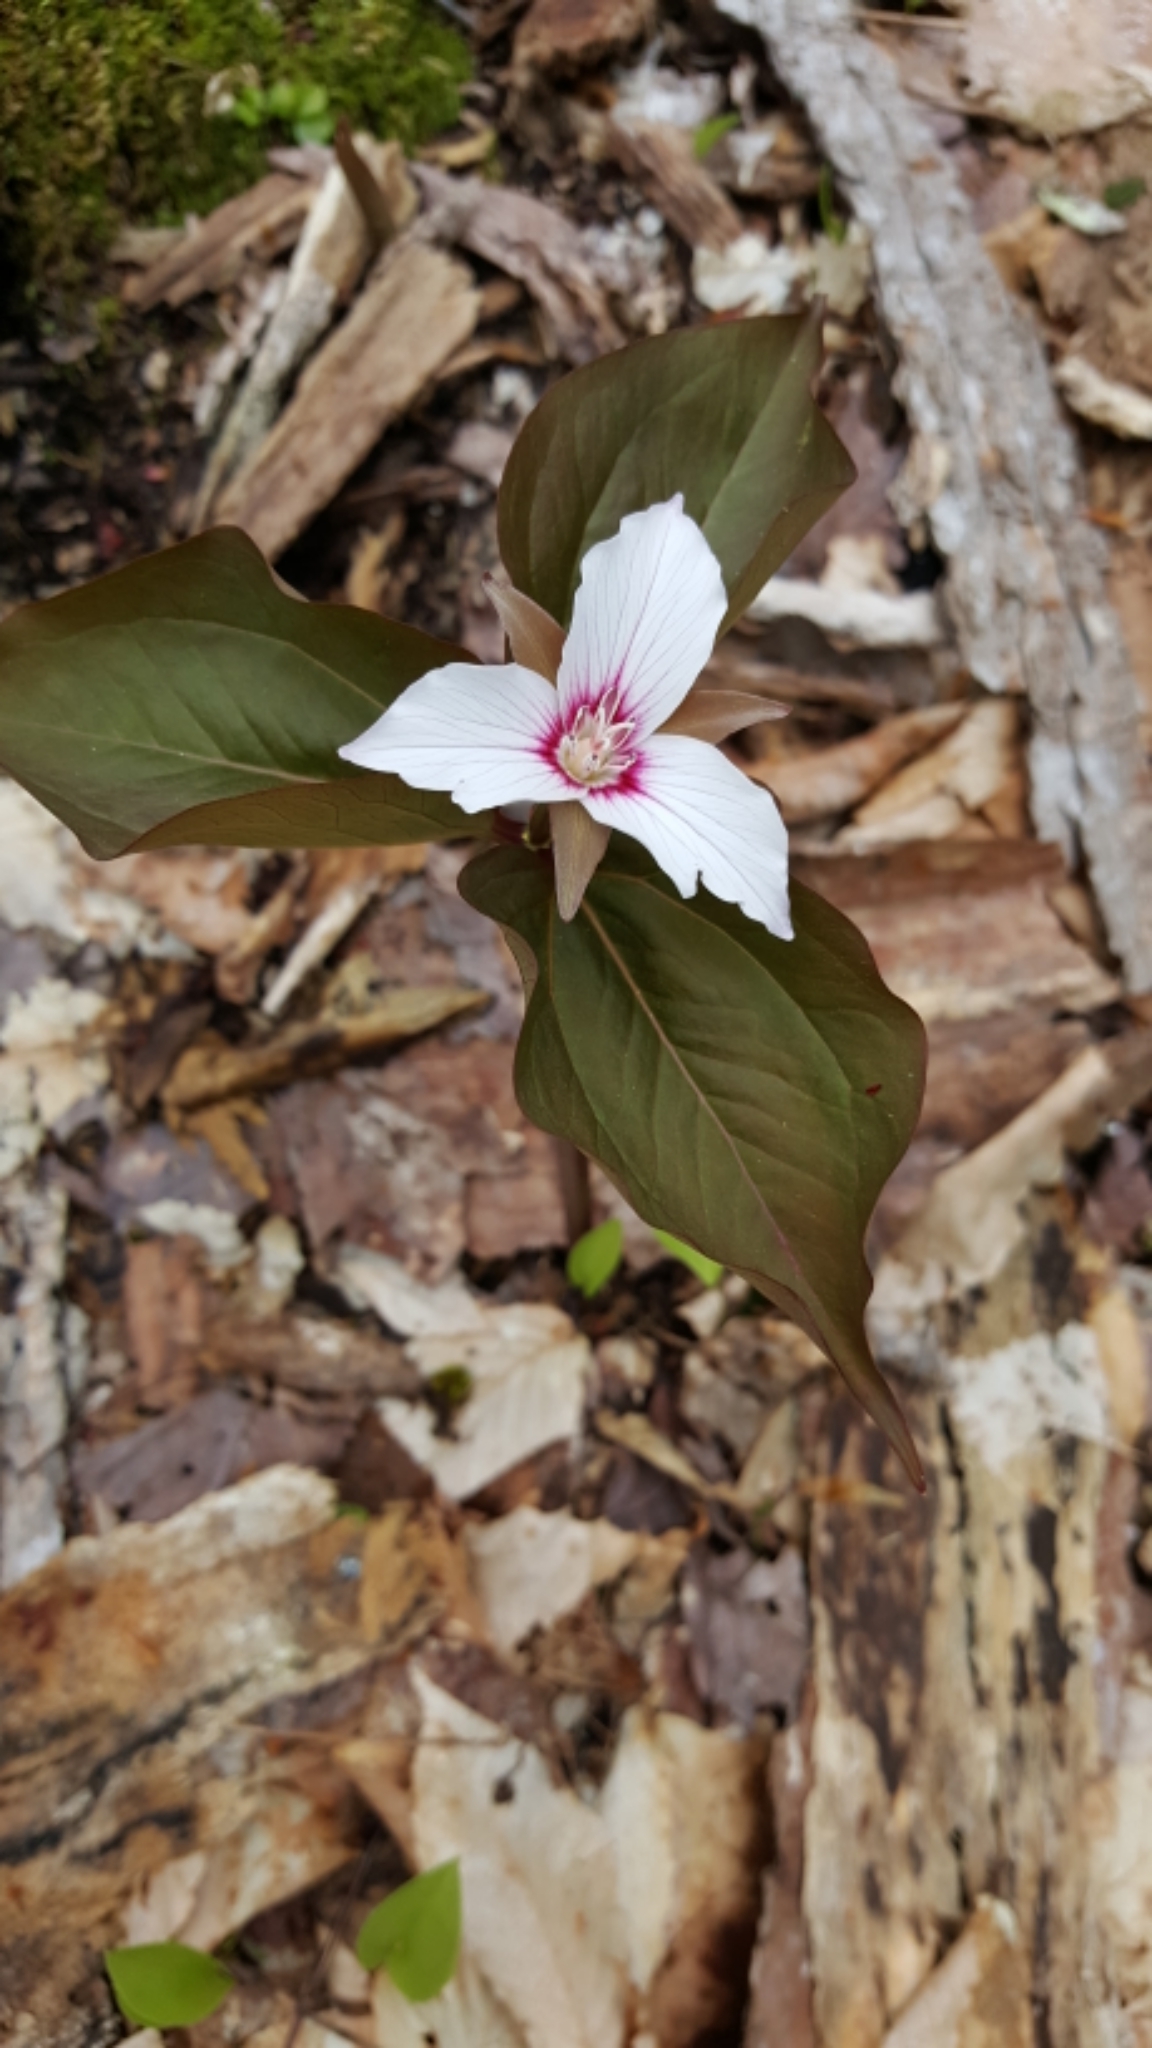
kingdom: Plantae
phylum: Tracheophyta
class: Liliopsida
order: Liliales
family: Melanthiaceae
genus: Trillium
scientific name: Trillium undulatum
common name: Paint trillium
